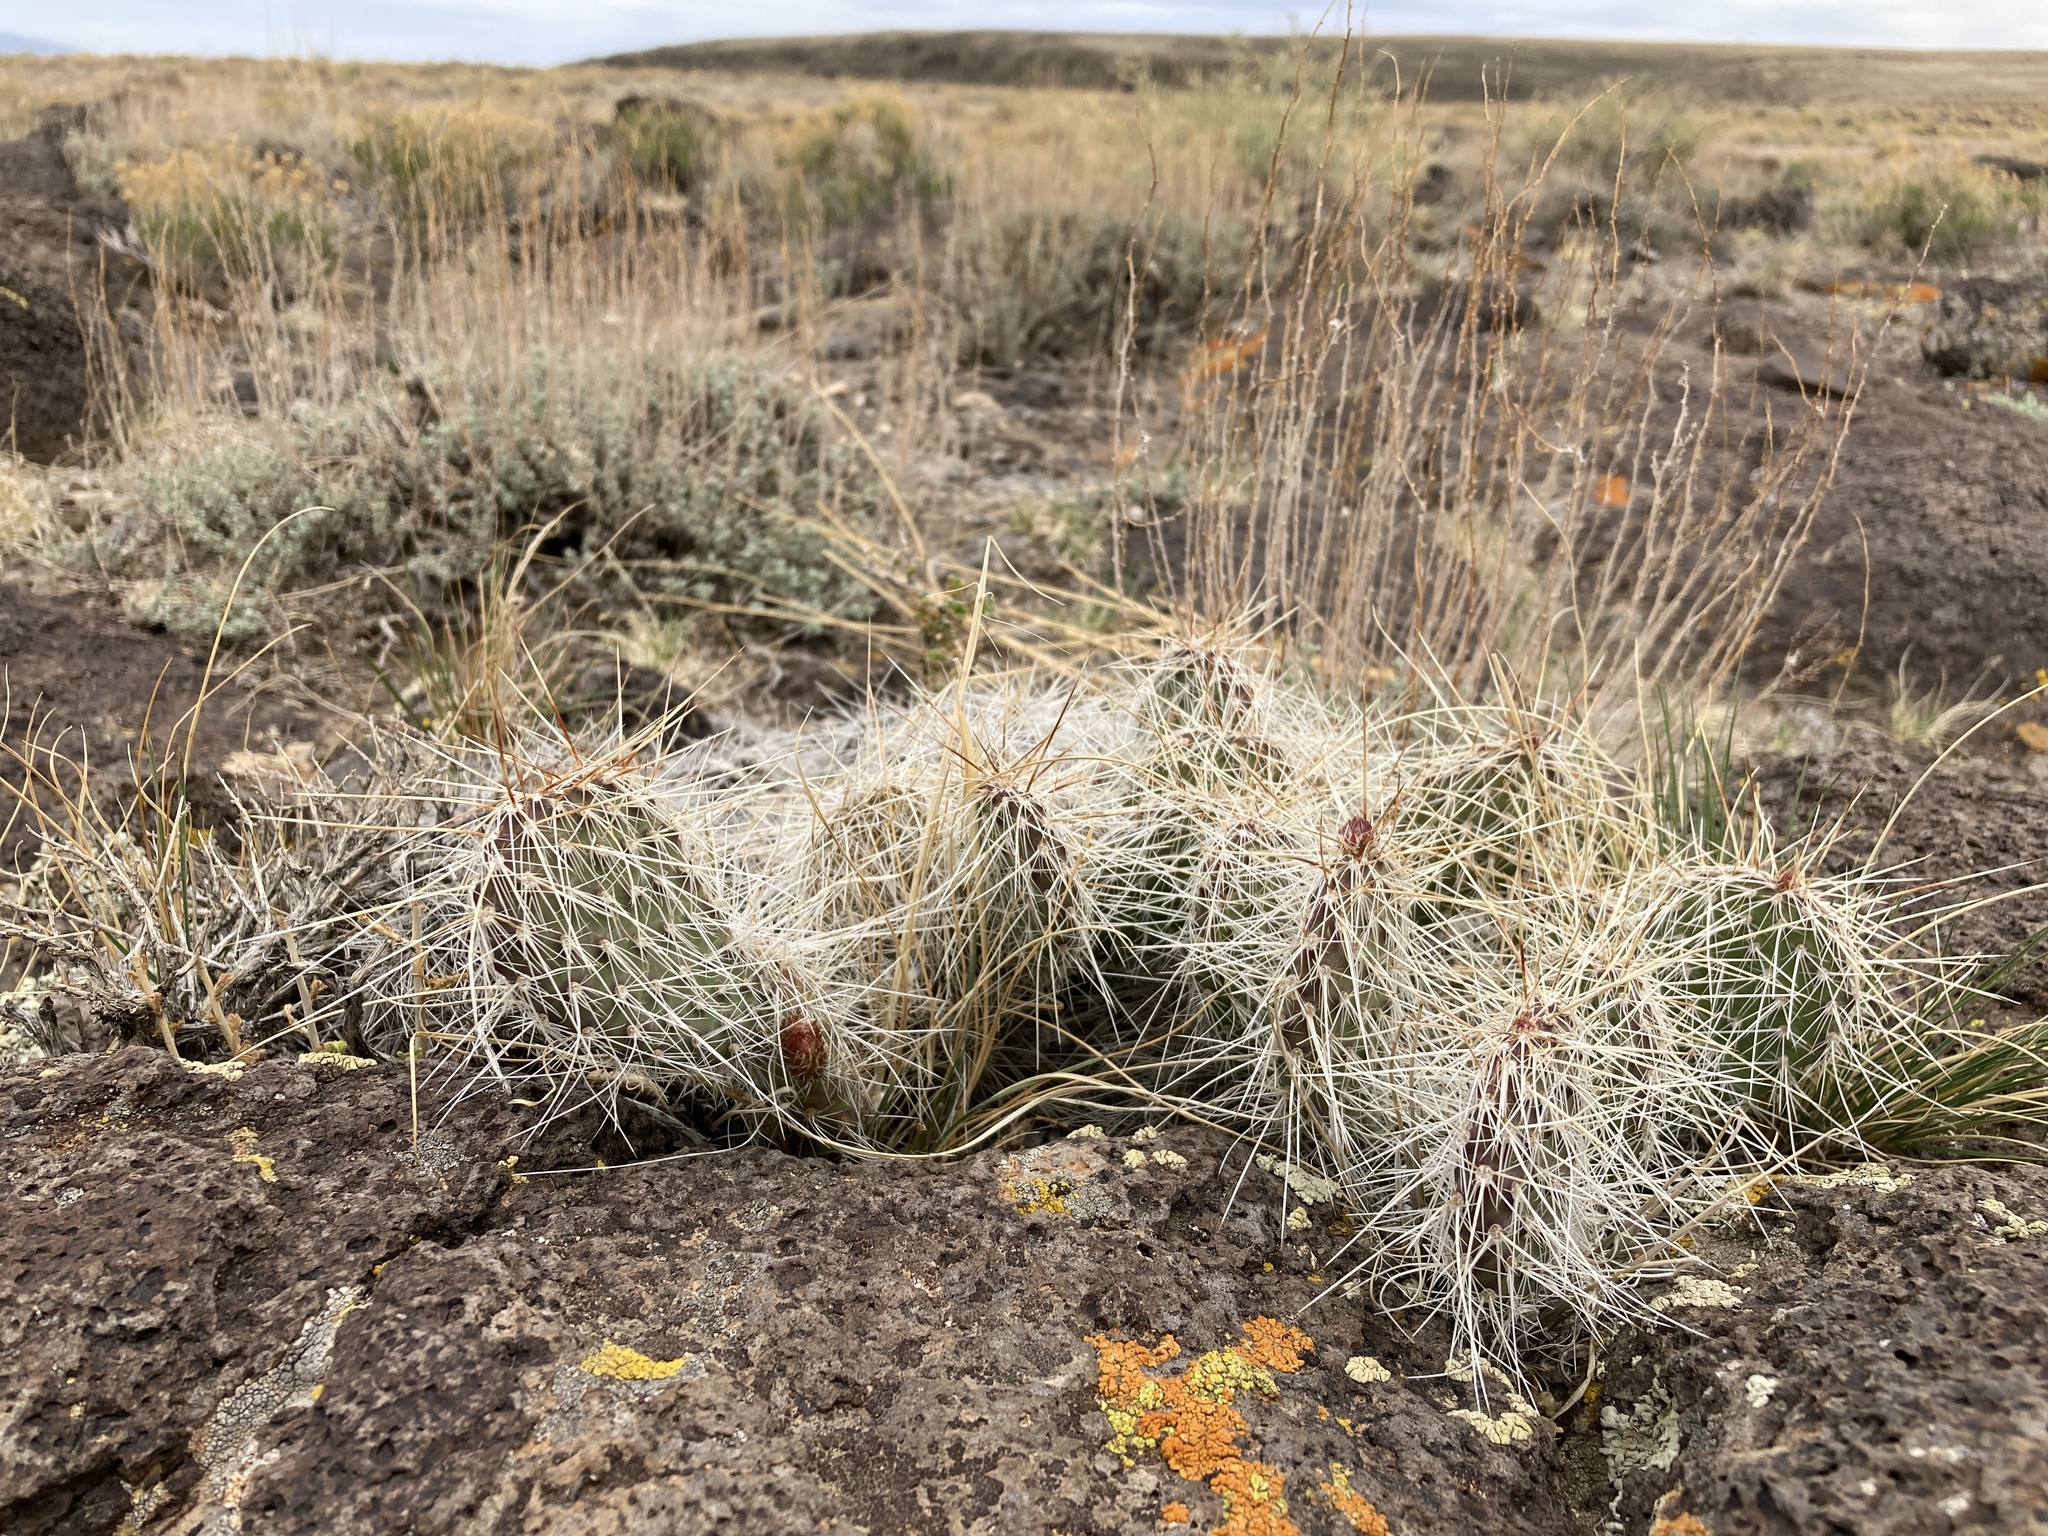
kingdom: Plantae
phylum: Tracheophyta
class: Magnoliopsida
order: Caryophyllales
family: Cactaceae
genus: Opuntia
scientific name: Opuntia polyacantha
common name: Plains prickly-pear
